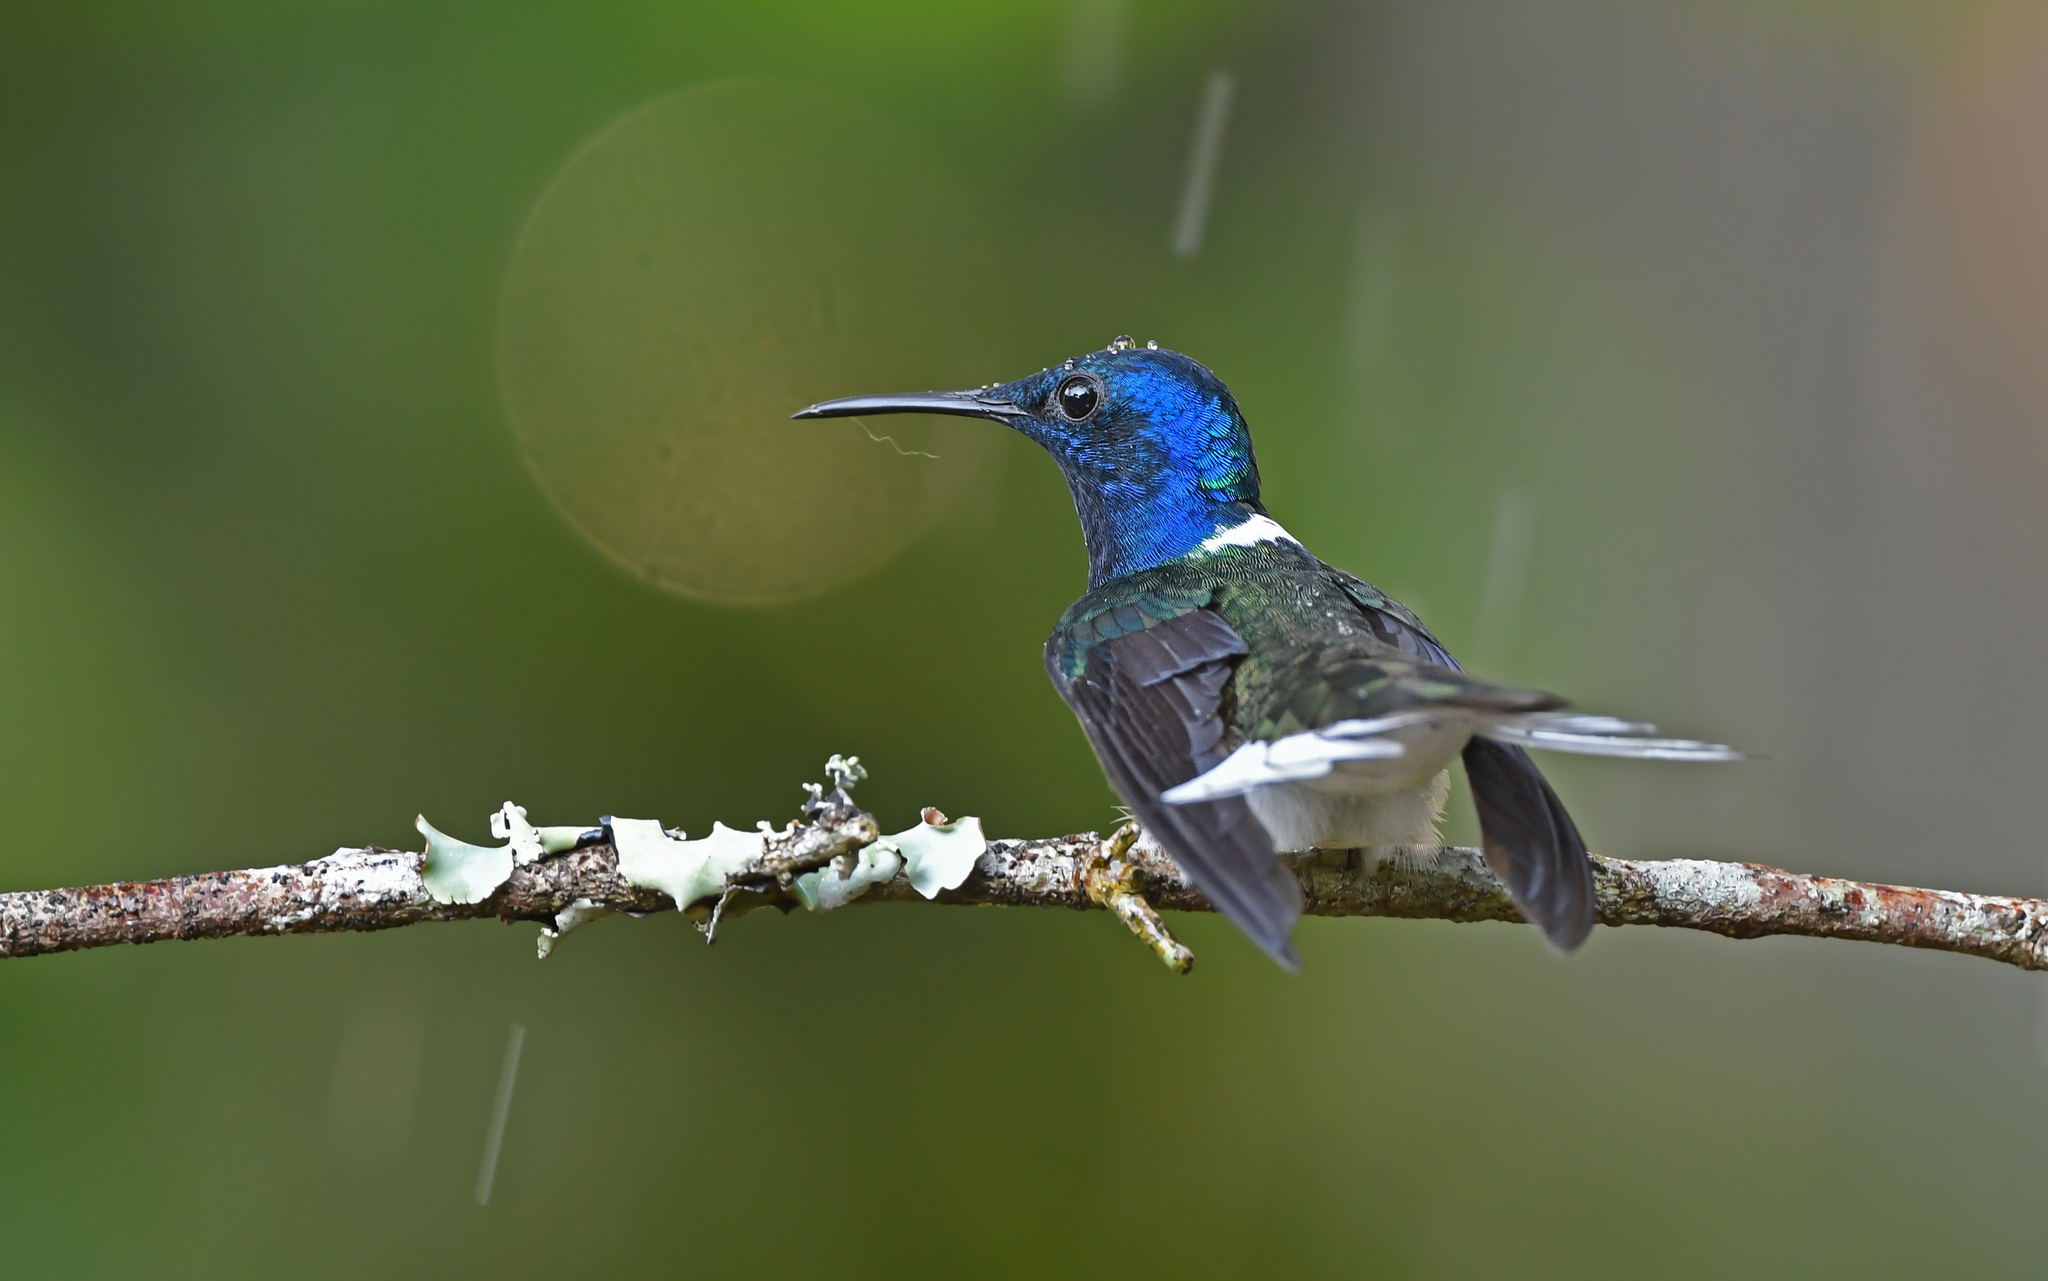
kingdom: Animalia
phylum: Chordata
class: Aves
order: Apodiformes
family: Trochilidae
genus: Florisuga
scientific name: Florisuga mellivora
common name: White-necked jacobin
